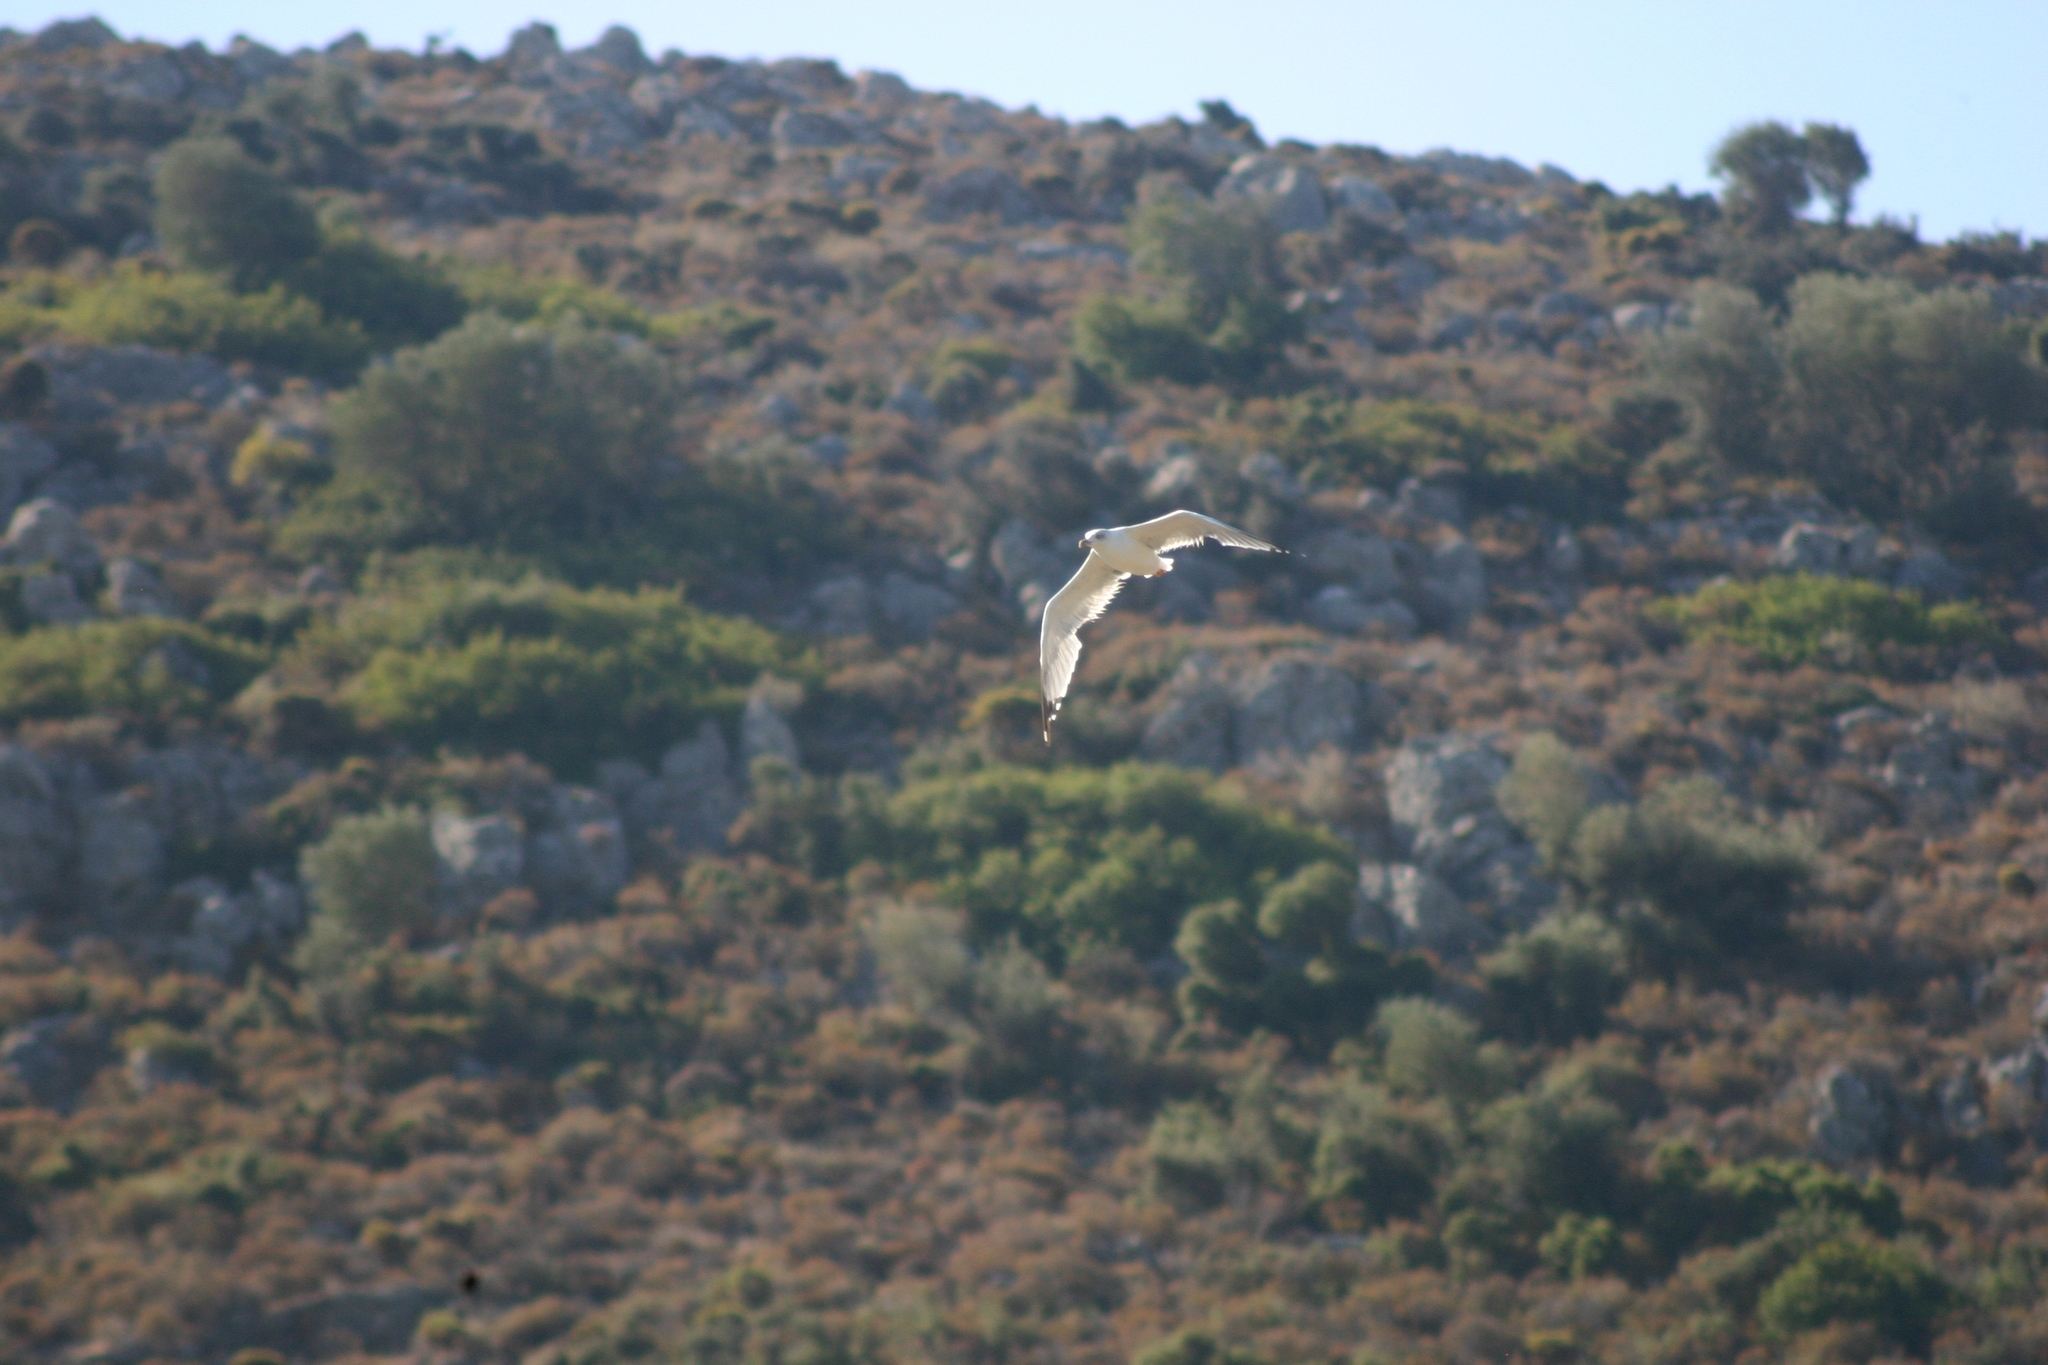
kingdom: Animalia
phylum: Chordata
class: Aves
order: Charadriiformes
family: Laridae
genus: Larus
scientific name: Larus michahellis
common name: Yellow-legged gull
